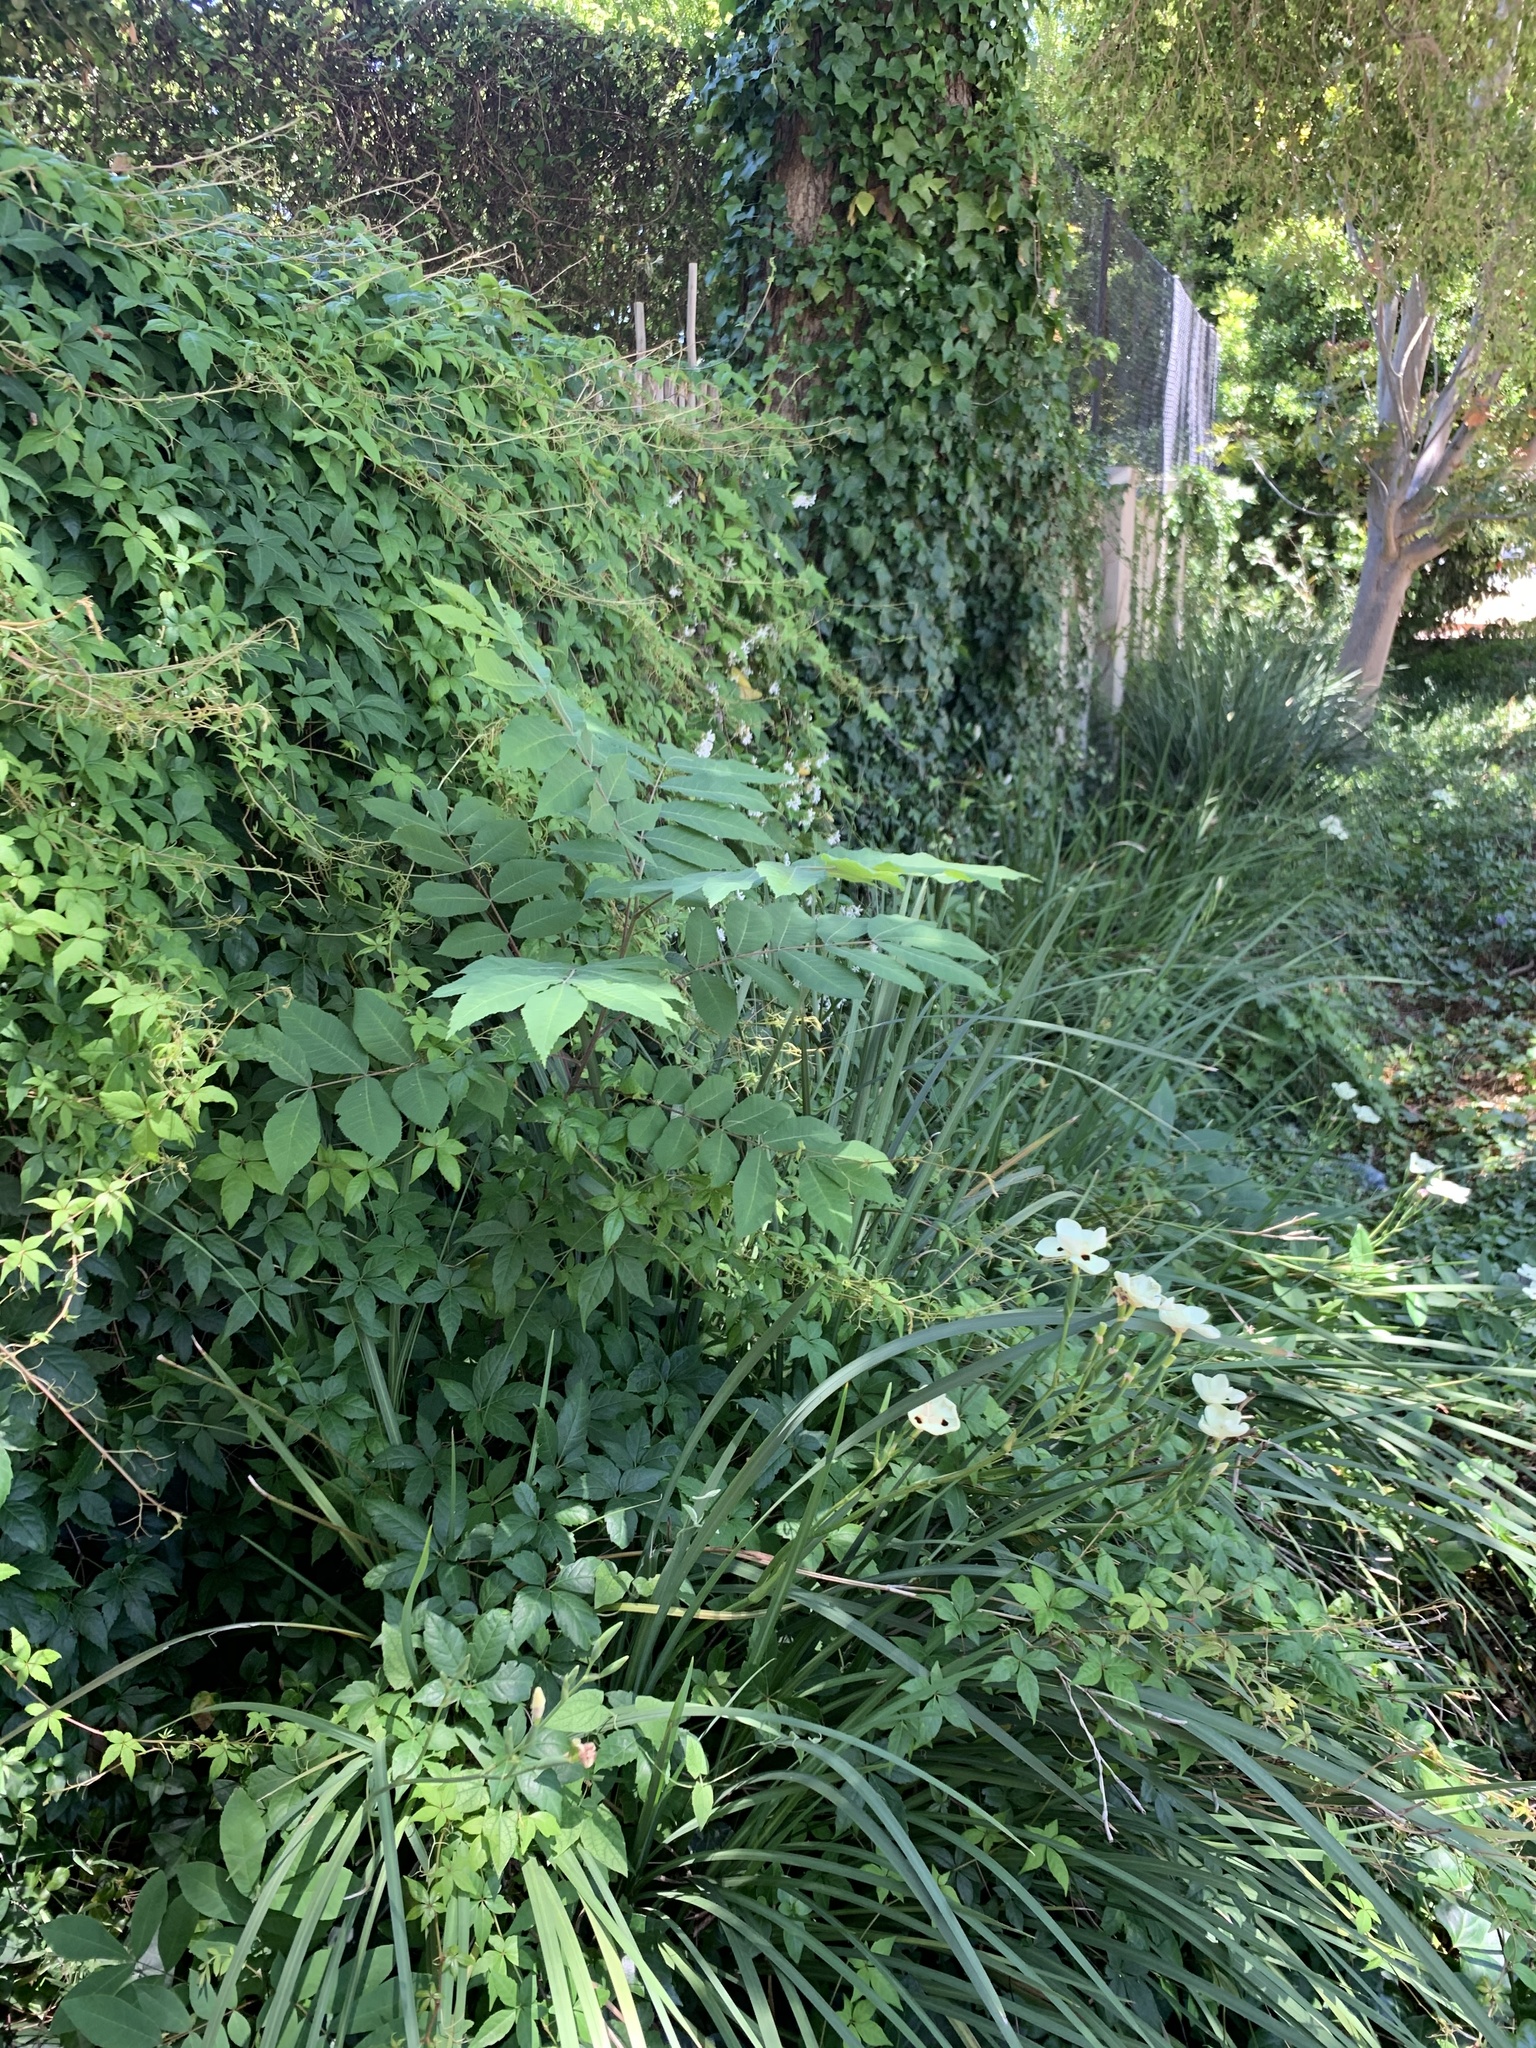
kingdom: Plantae
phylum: Tracheophyta
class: Magnoliopsida
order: Fagales
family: Juglandaceae
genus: Carya
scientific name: Carya illinoinensis
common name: Pecan
